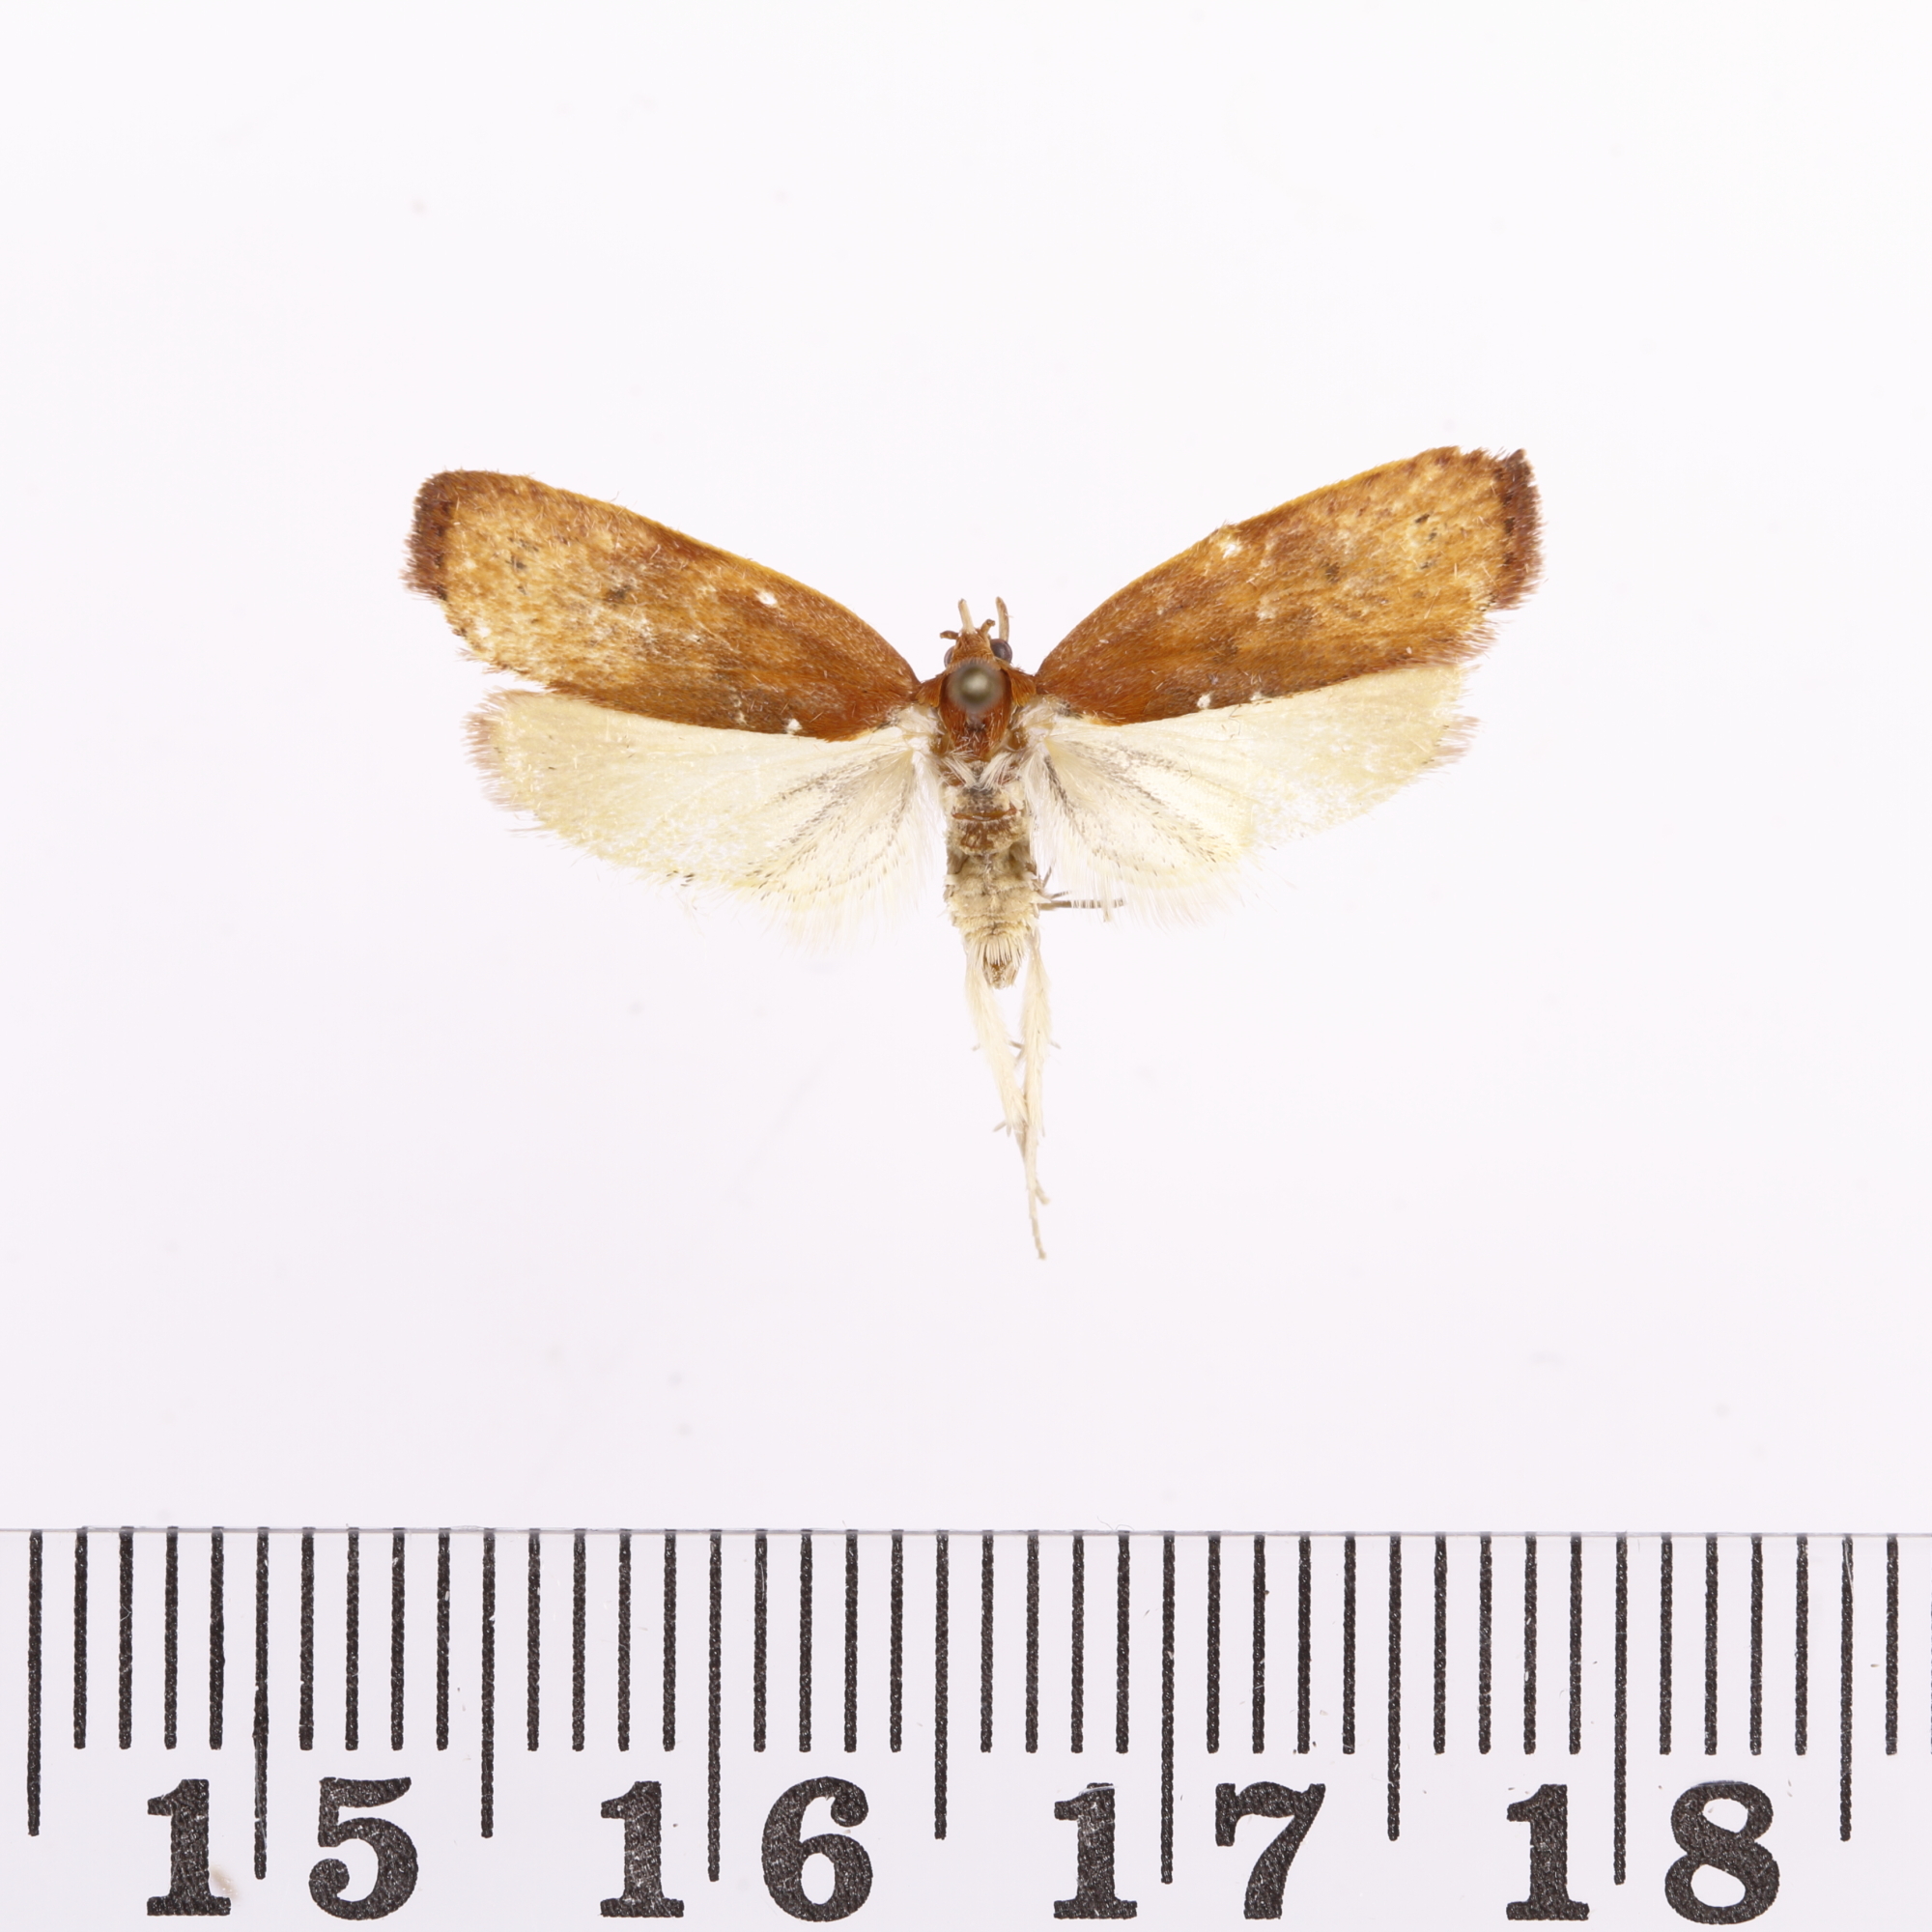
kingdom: Animalia
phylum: Arthropoda
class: Insecta
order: Lepidoptera
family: Depressariidae
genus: Phaeosaces
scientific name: Phaeosaces coarctatella
